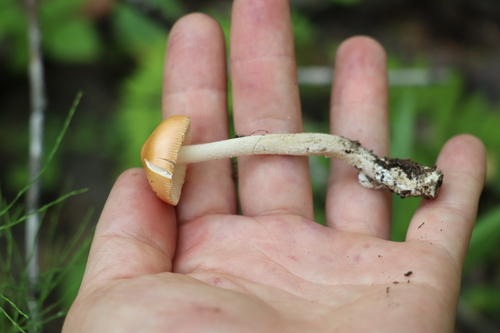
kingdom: Fungi
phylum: Basidiomycota
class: Agaricomycetes
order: Agaricales
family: Amanitaceae
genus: Amanita
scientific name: Amanita crocea
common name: Orange grisette
